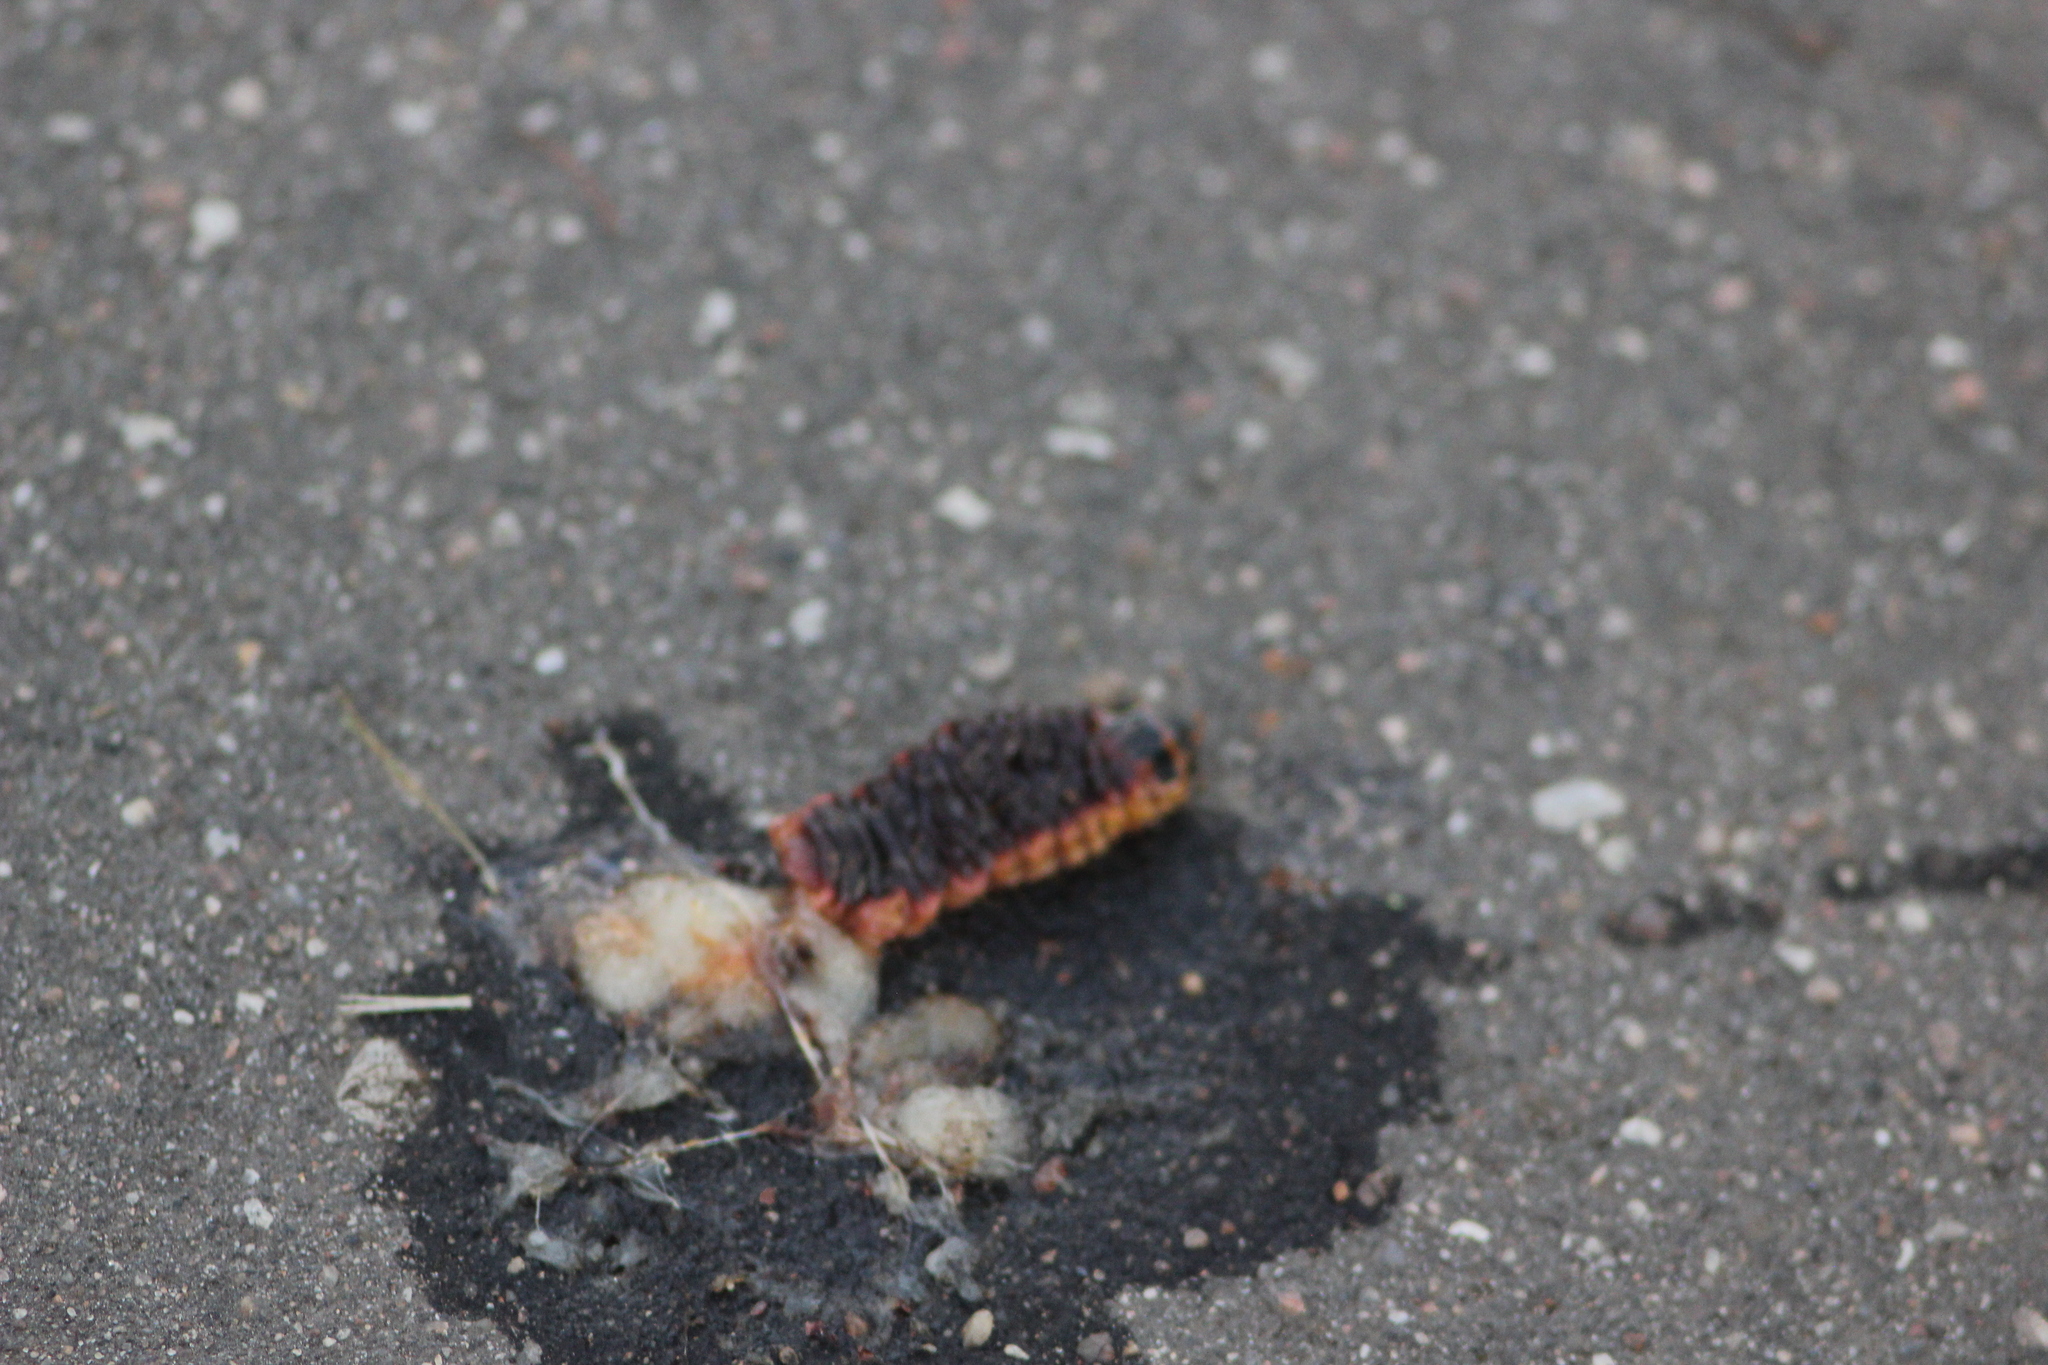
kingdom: Animalia
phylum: Arthropoda
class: Insecta
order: Lepidoptera
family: Cossidae
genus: Cossus
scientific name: Cossus cossus
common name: Goat moth
